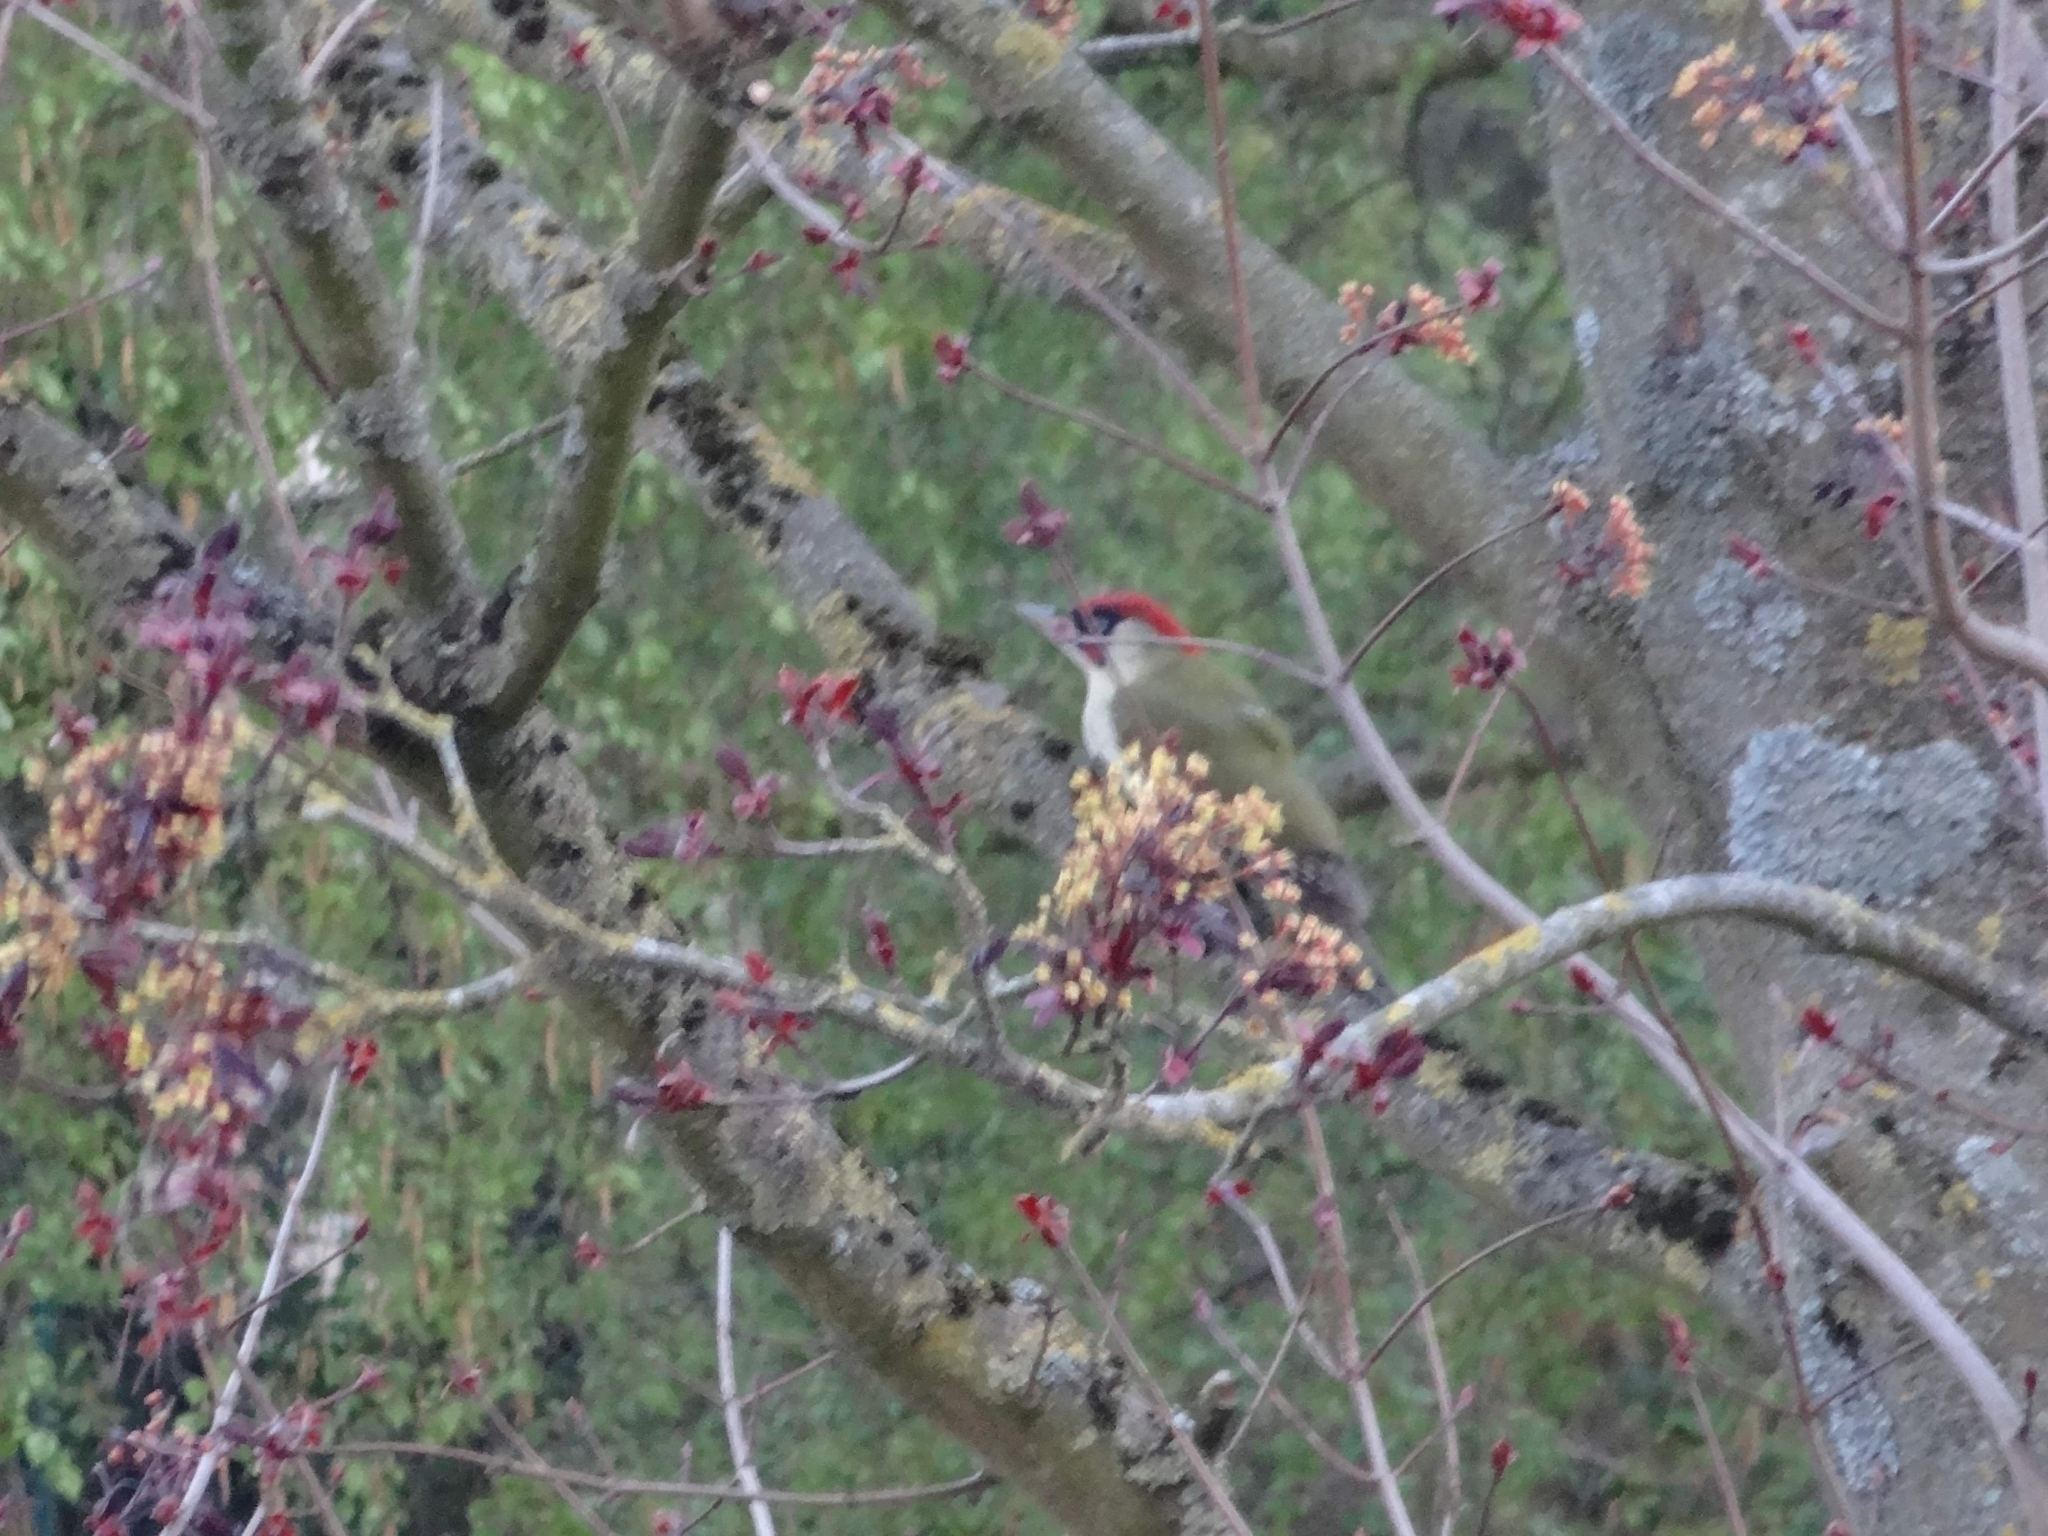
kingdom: Animalia
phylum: Chordata
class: Aves
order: Piciformes
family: Picidae
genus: Picus
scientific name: Picus viridis
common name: European green woodpecker
